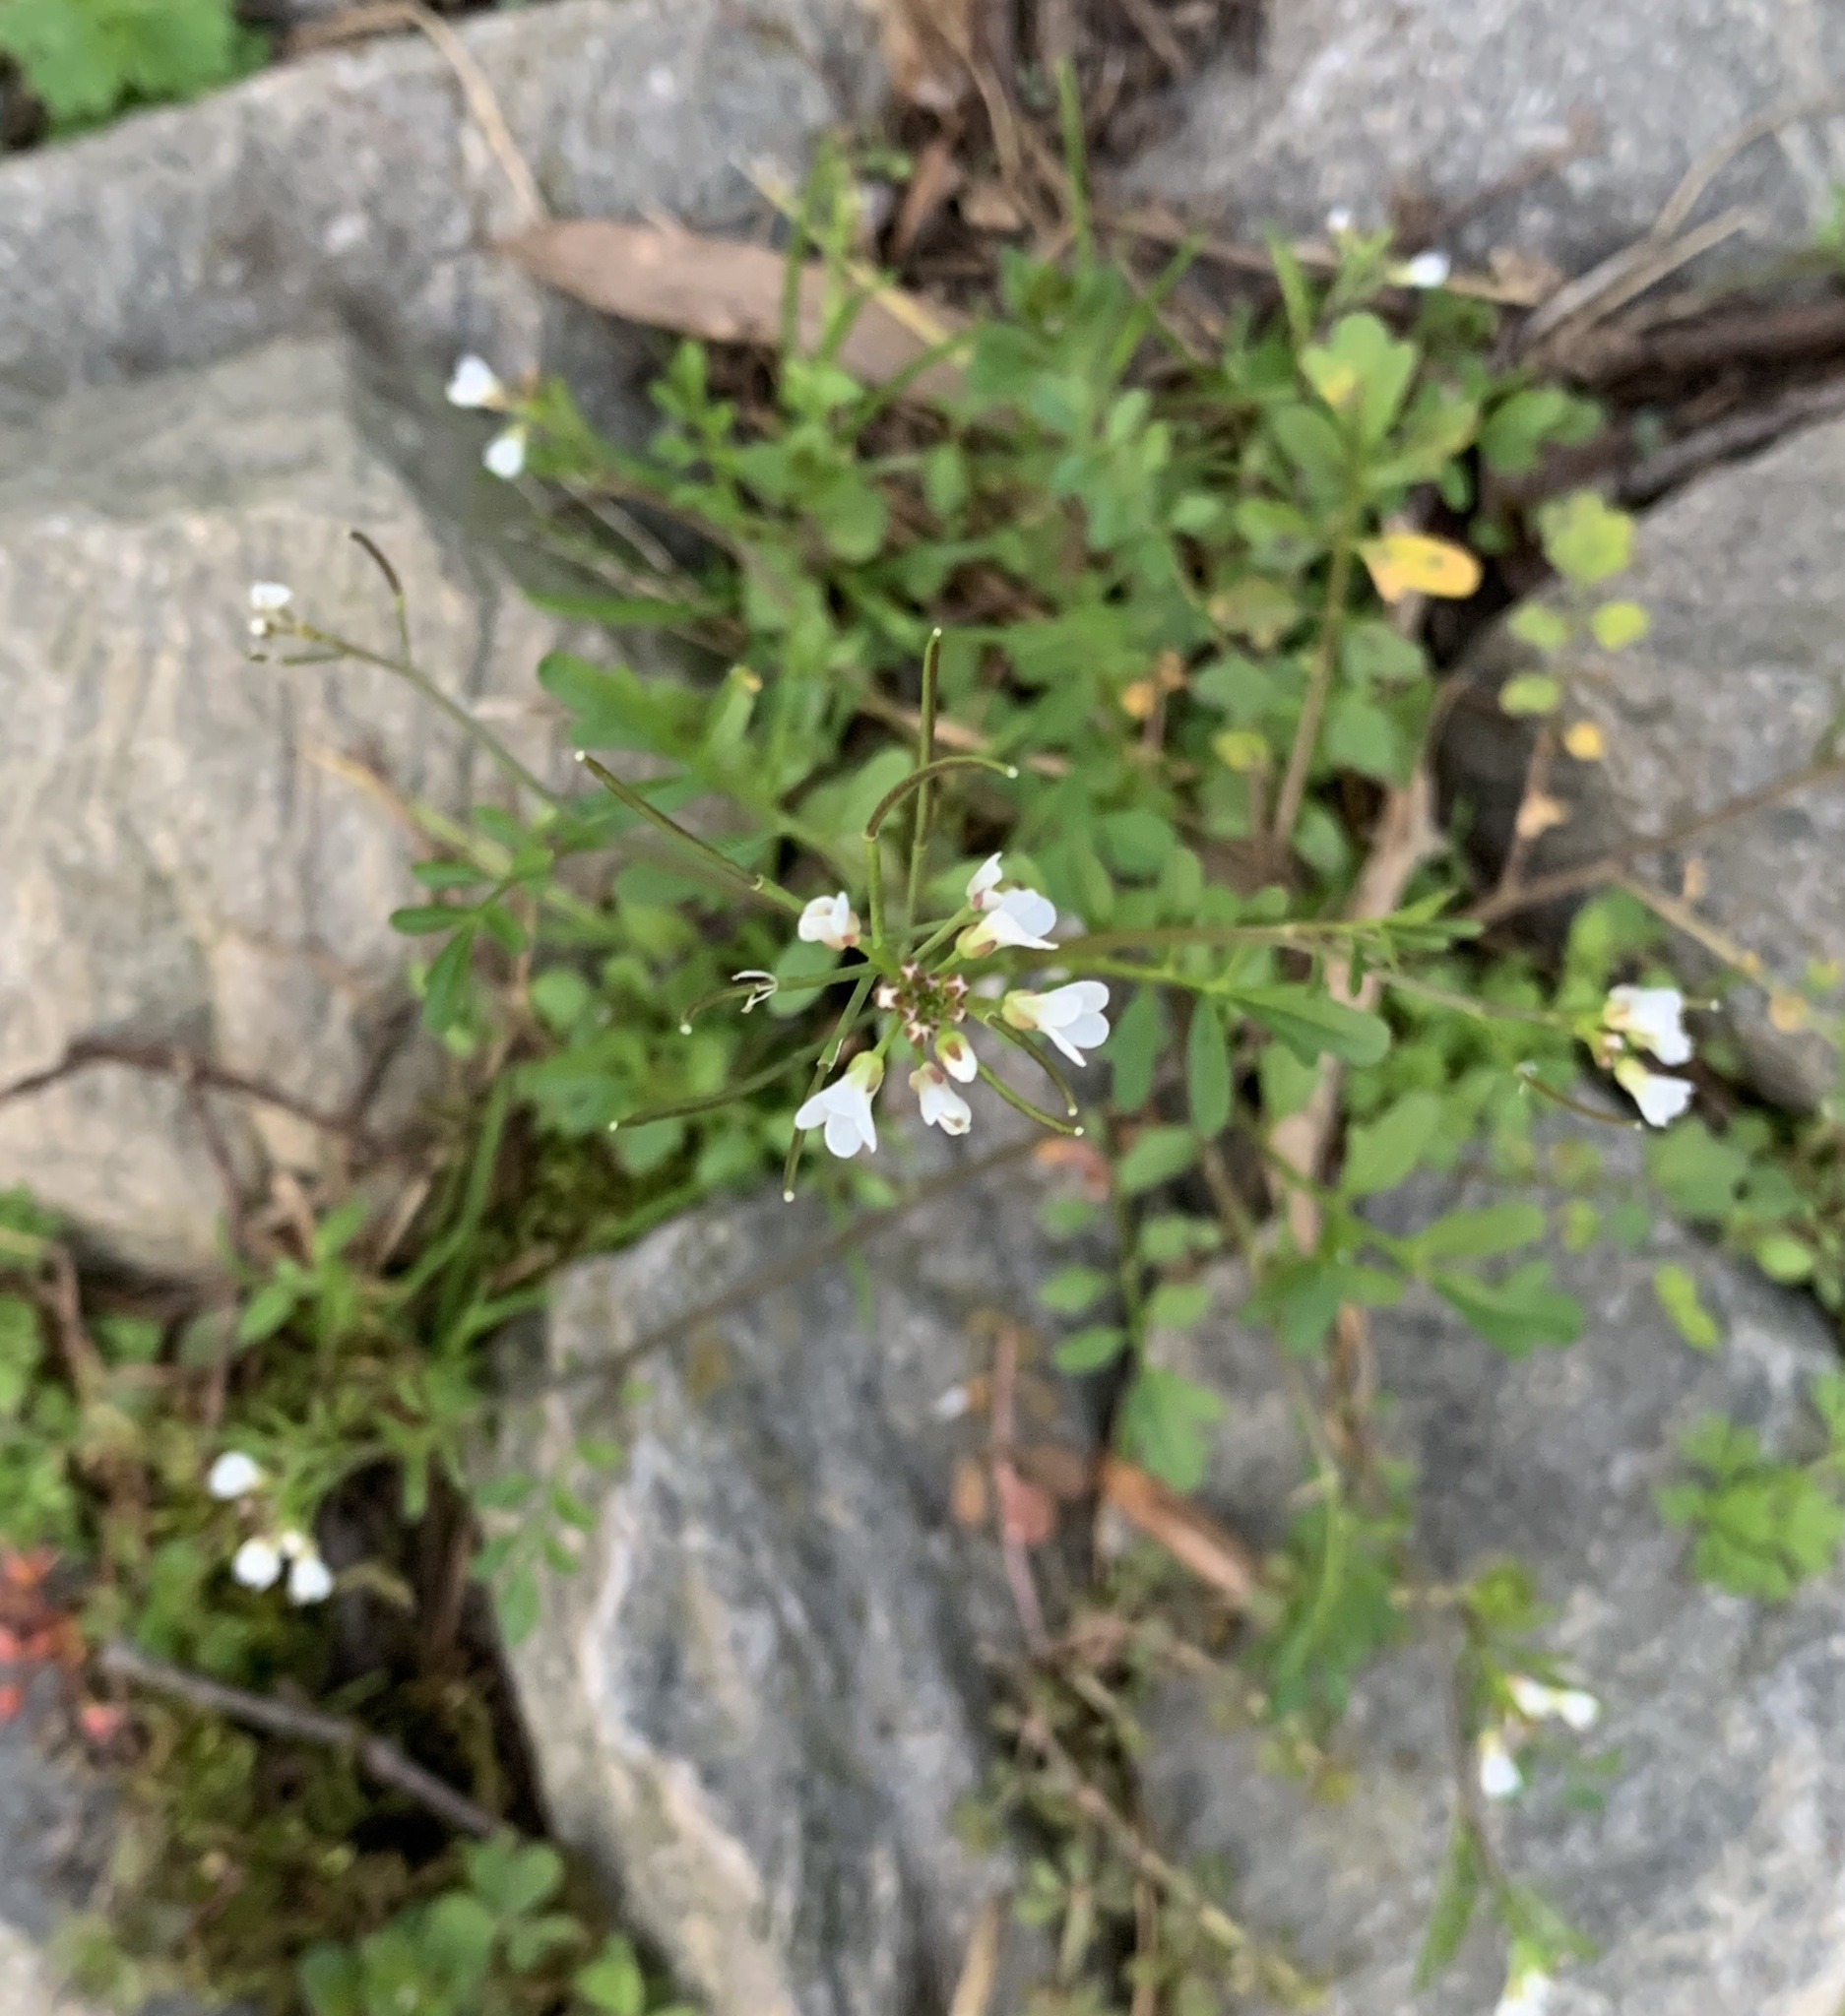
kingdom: Plantae
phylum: Tracheophyta
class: Magnoliopsida
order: Brassicales
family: Brassicaceae
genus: Cardamine
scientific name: Cardamine occulta
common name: Asian wavy bittercress
